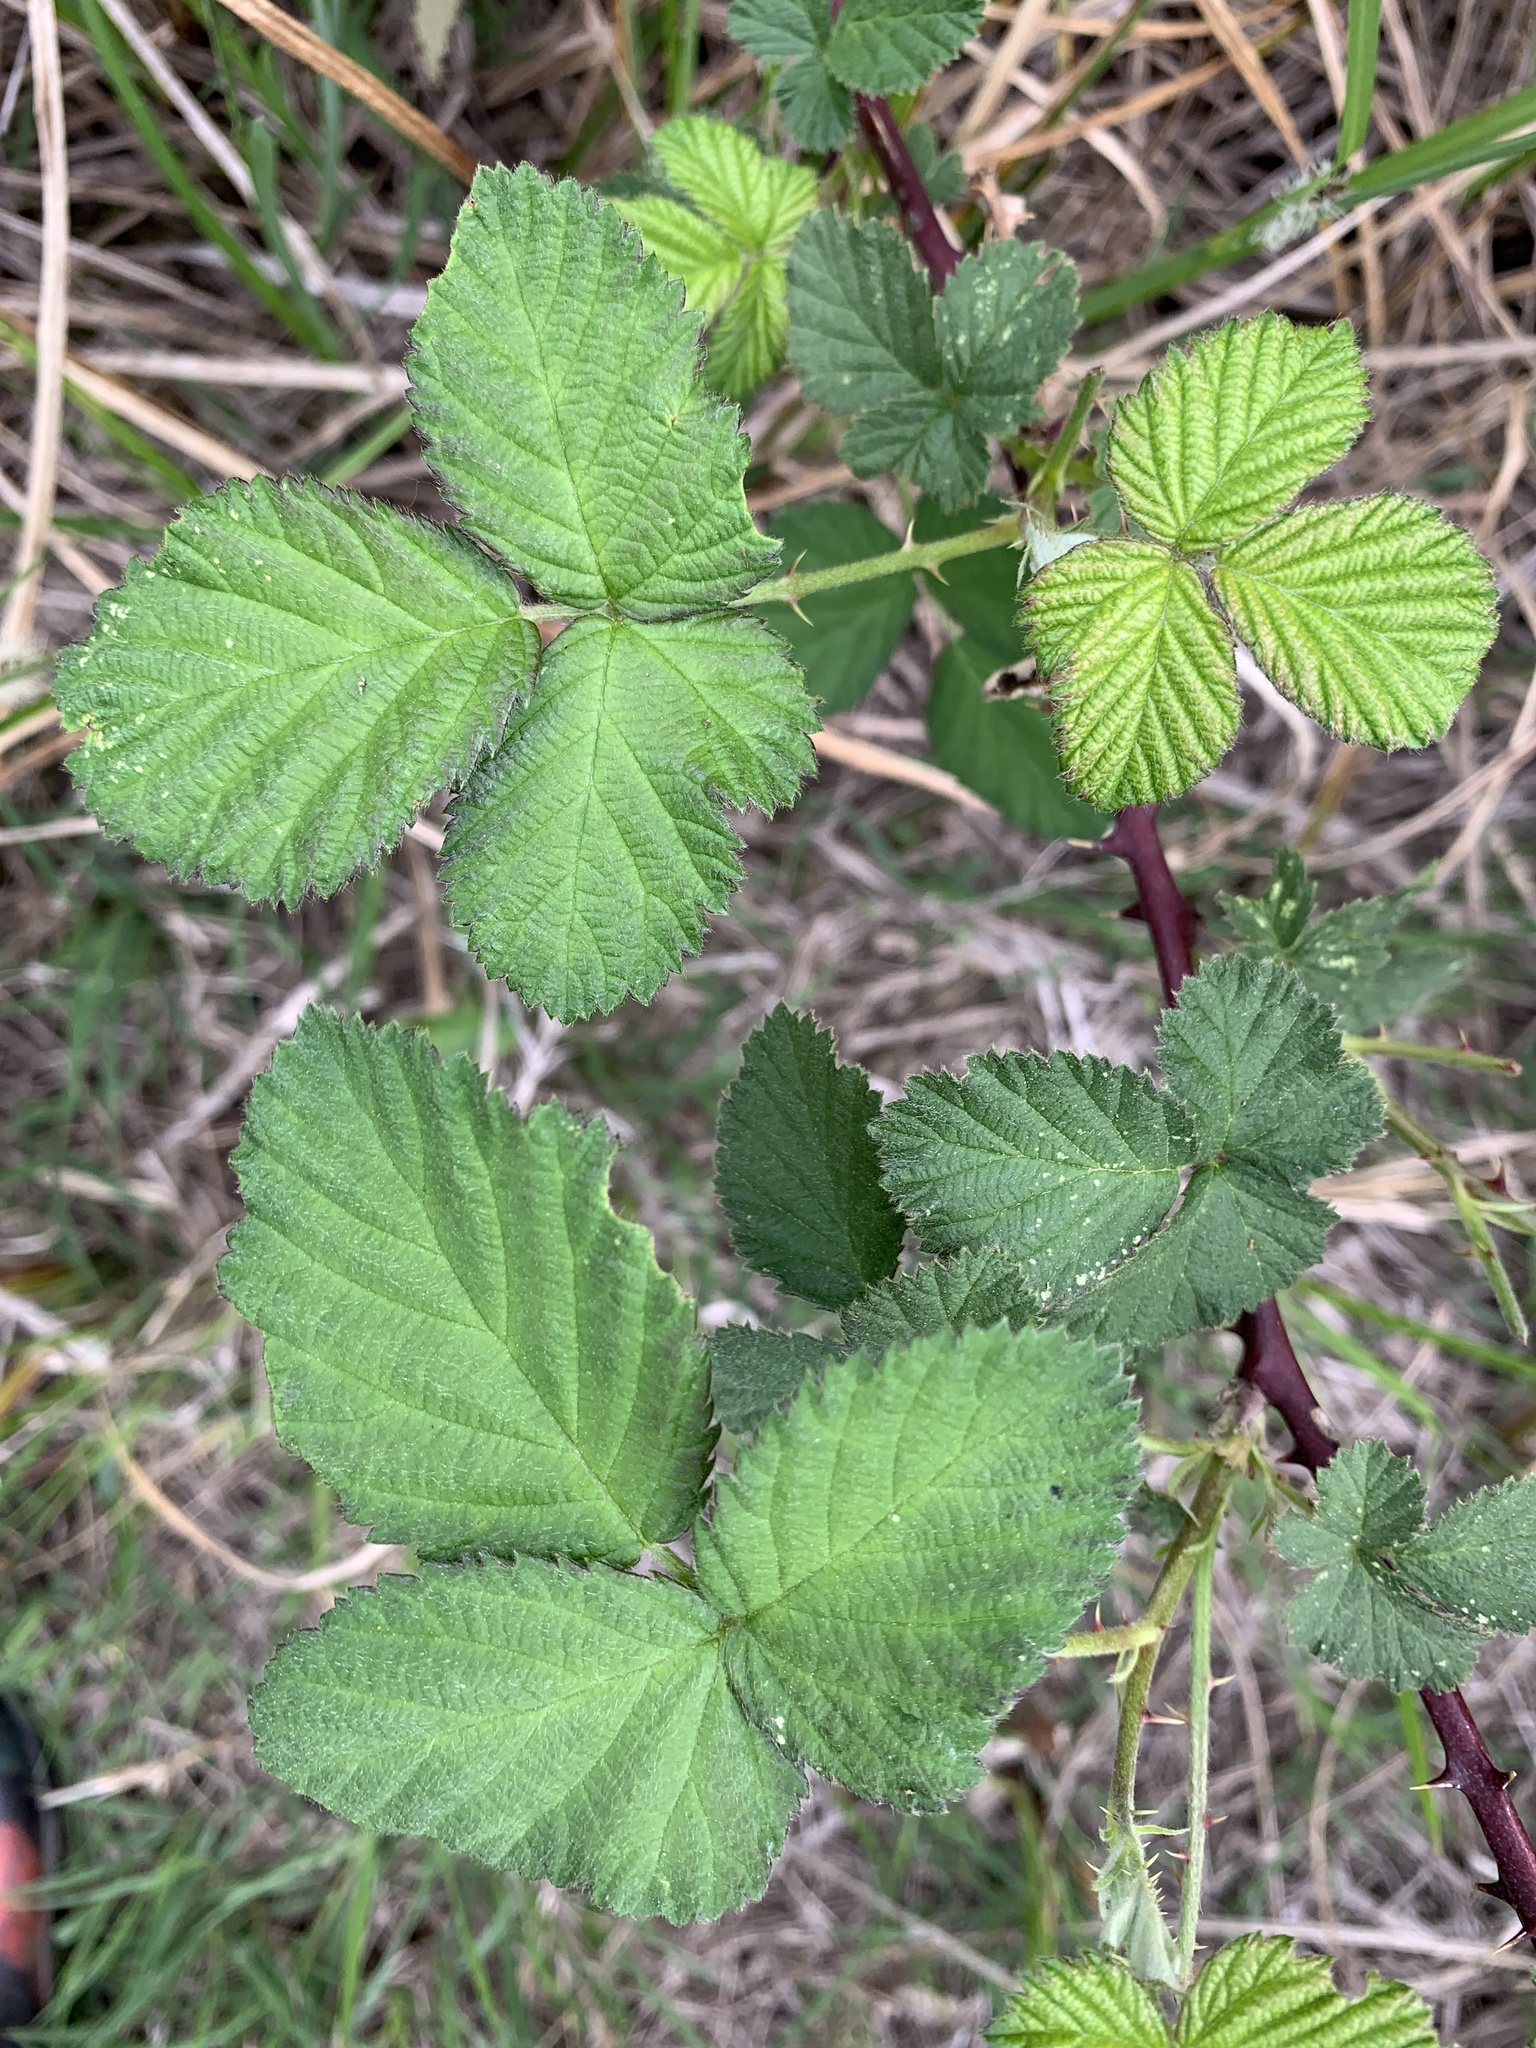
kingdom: Plantae
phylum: Tracheophyta
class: Magnoliopsida
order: Rosales
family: Rosaceae
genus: Rubus
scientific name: Rubus bifrons
